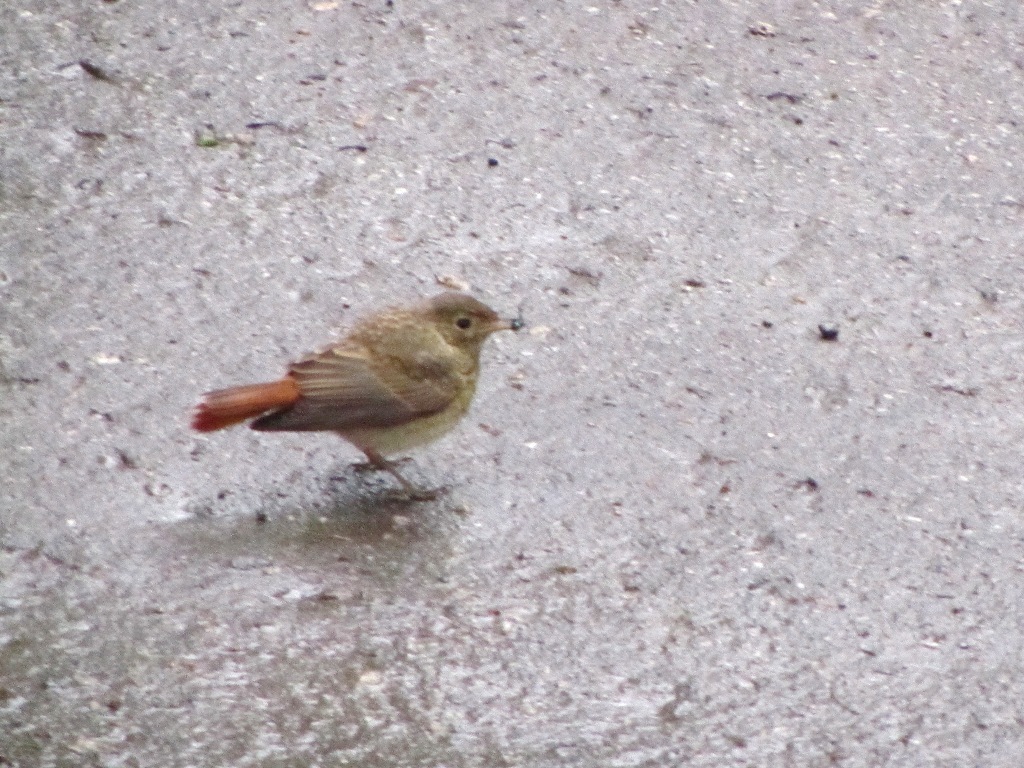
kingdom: Animalia
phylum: Chordata
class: Aves
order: Passeriformes
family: Muscicapidae
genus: Phoenicurus
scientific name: Phoenicurus phoenicurus
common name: Common redstart
